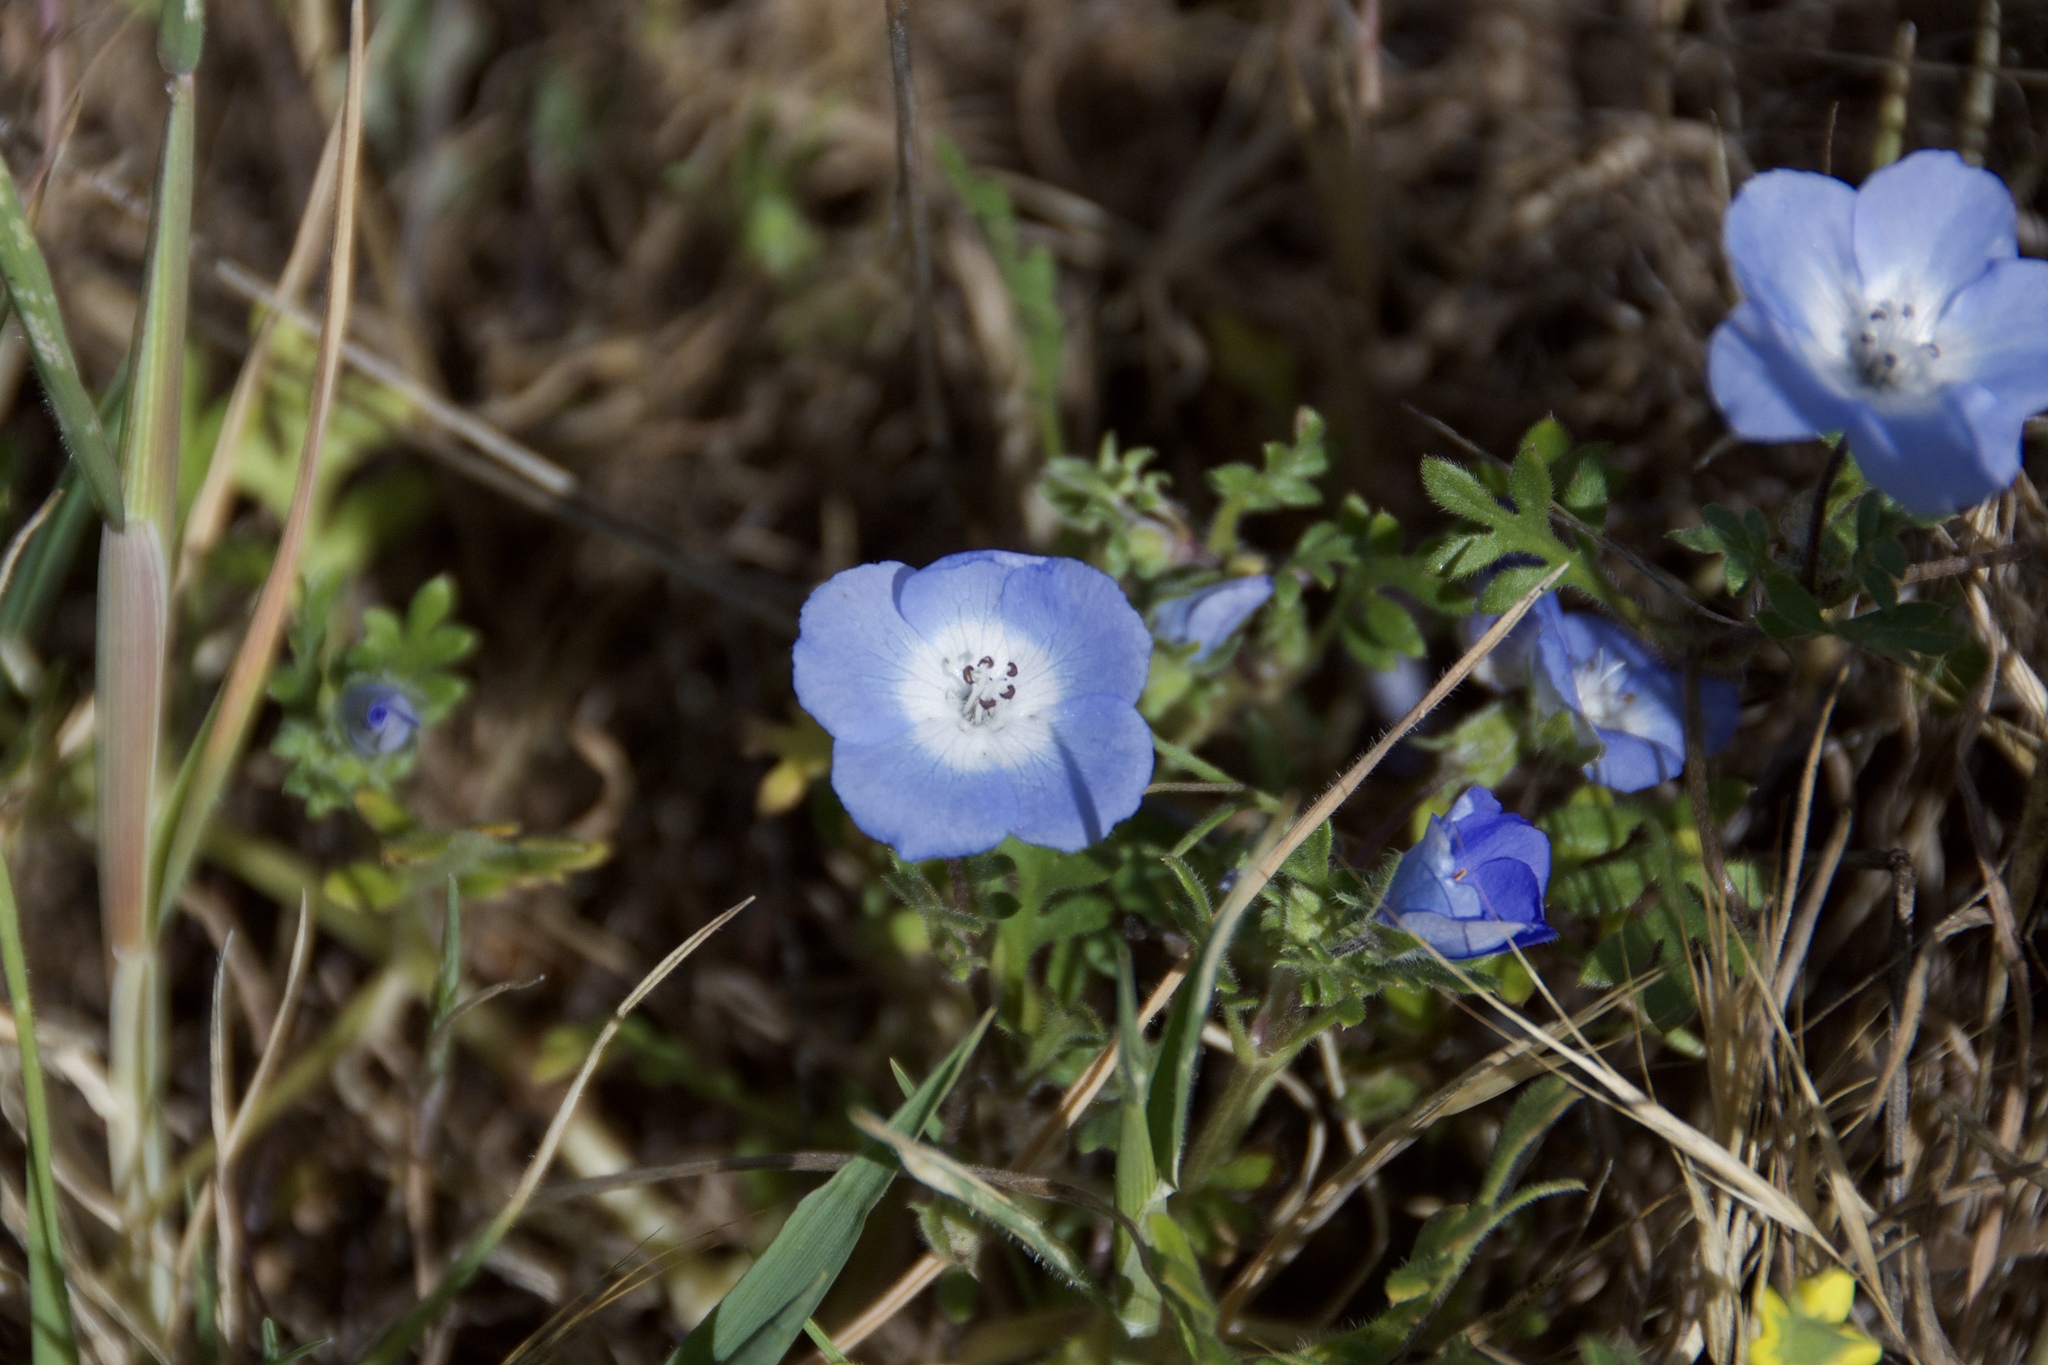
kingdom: Plantae
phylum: Tracheophyta
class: Magnoliopsida
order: Boraginales
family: Hydrophyllaceae
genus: Nemophila
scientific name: Nemophila menziesii
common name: Baby's-blue-eyes
